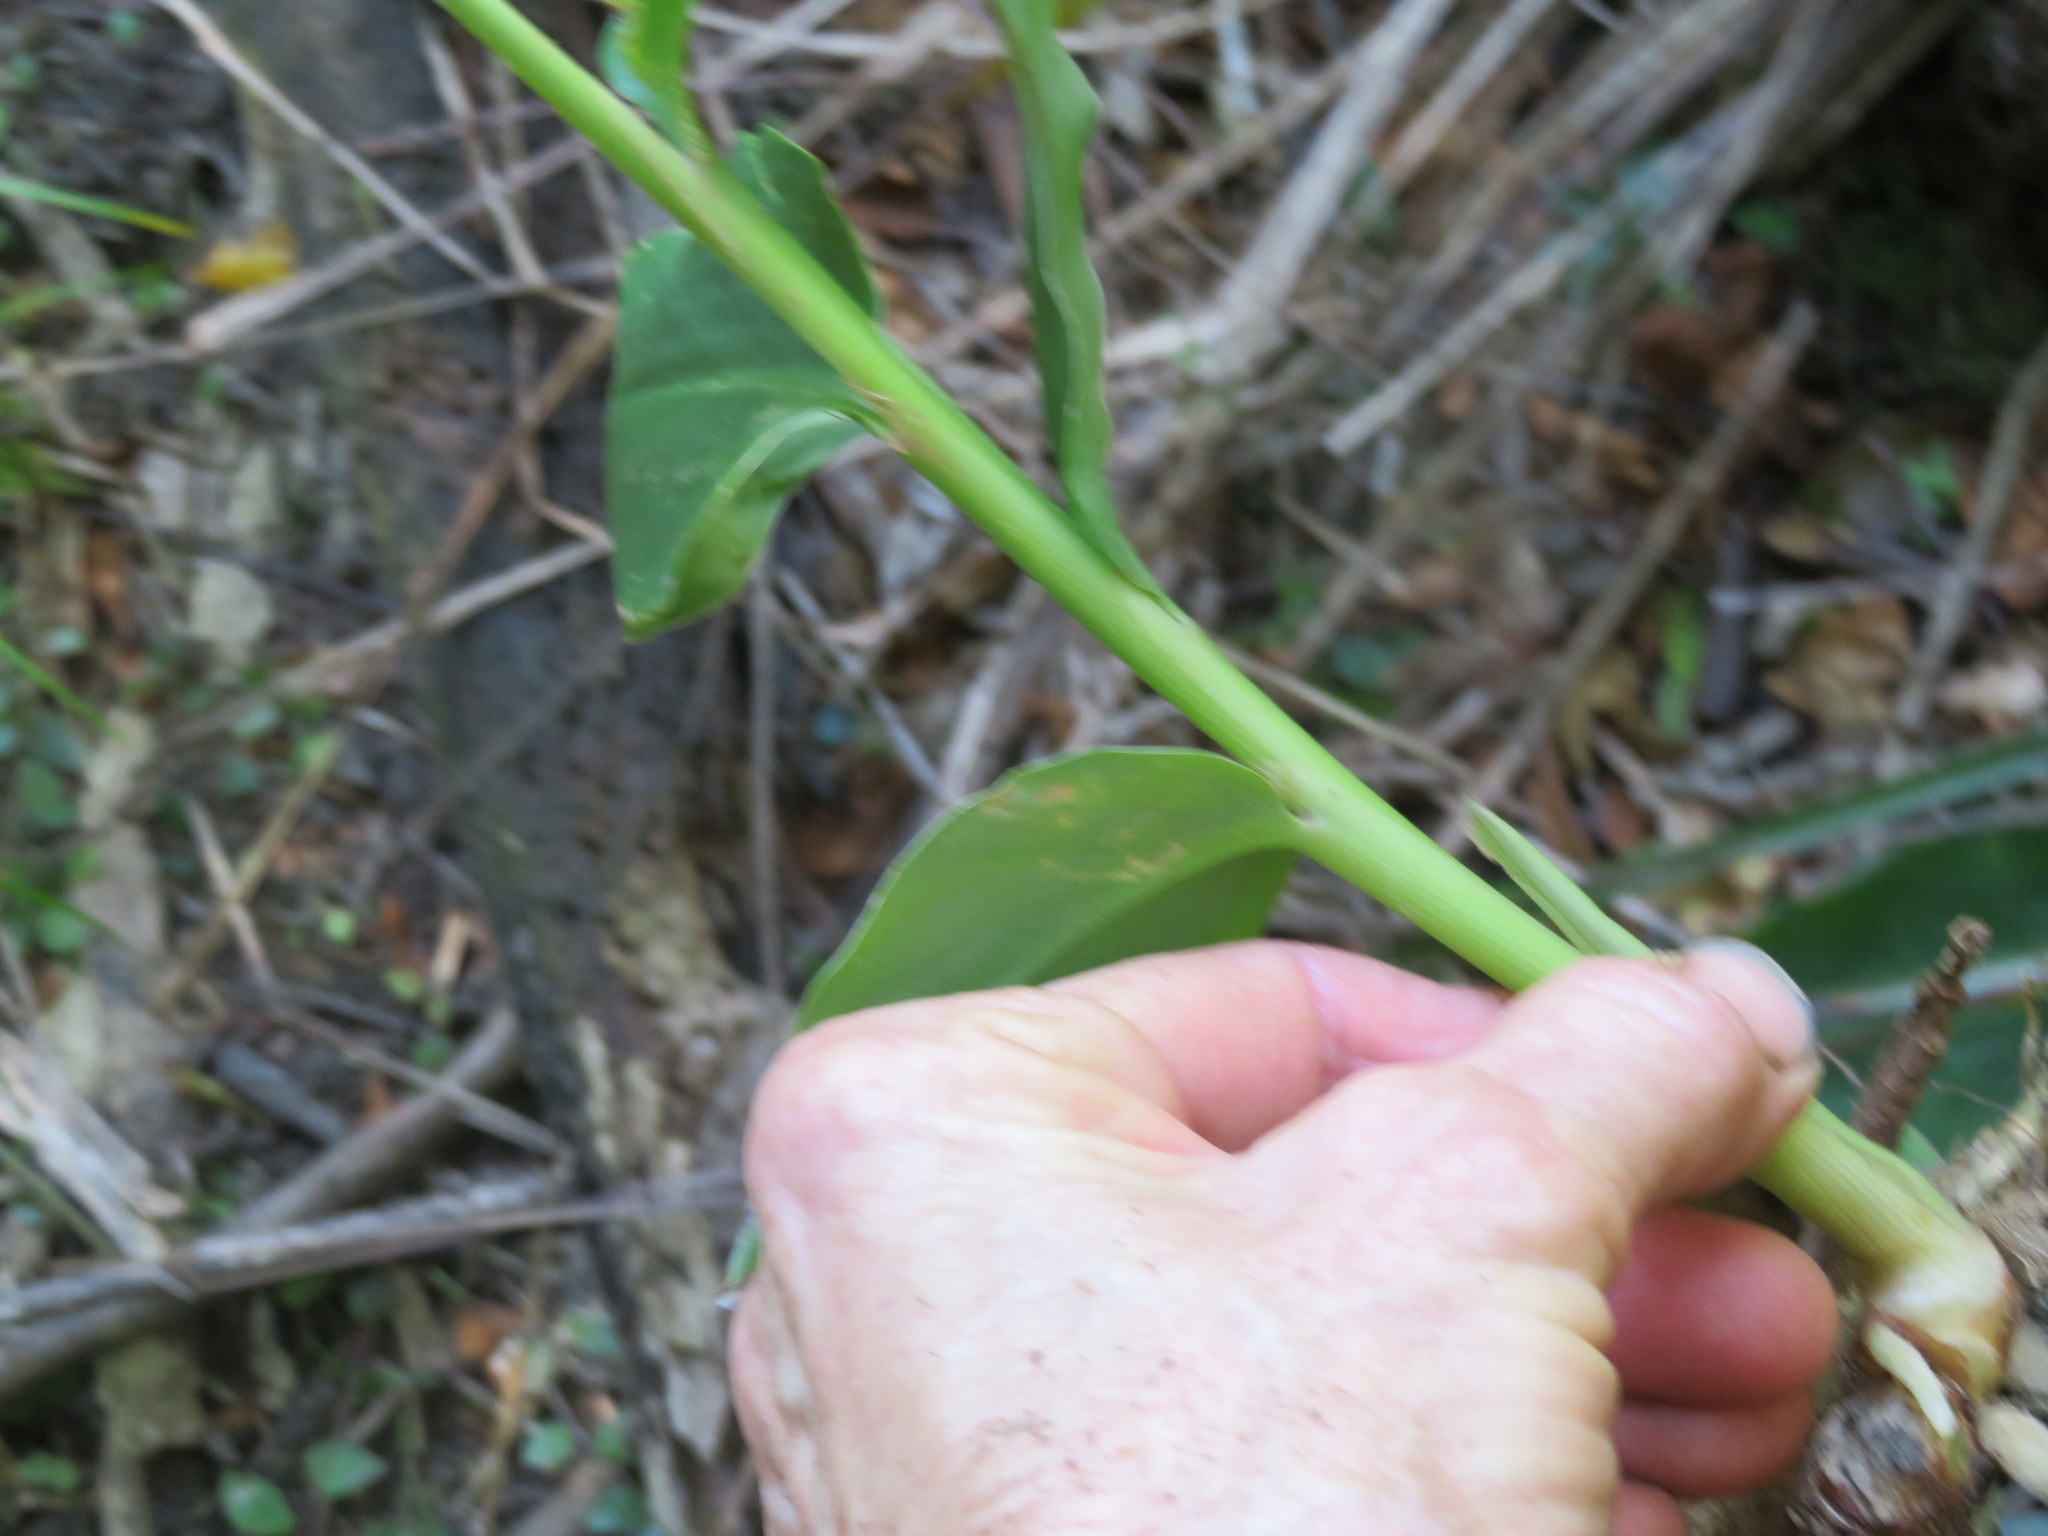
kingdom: Plantae
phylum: Tracheophyta
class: Liliopsida
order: Zingiberales
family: Zingiberaceae
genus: Hedychium
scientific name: Hedychium gardnerianum
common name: Himalayan ginger
